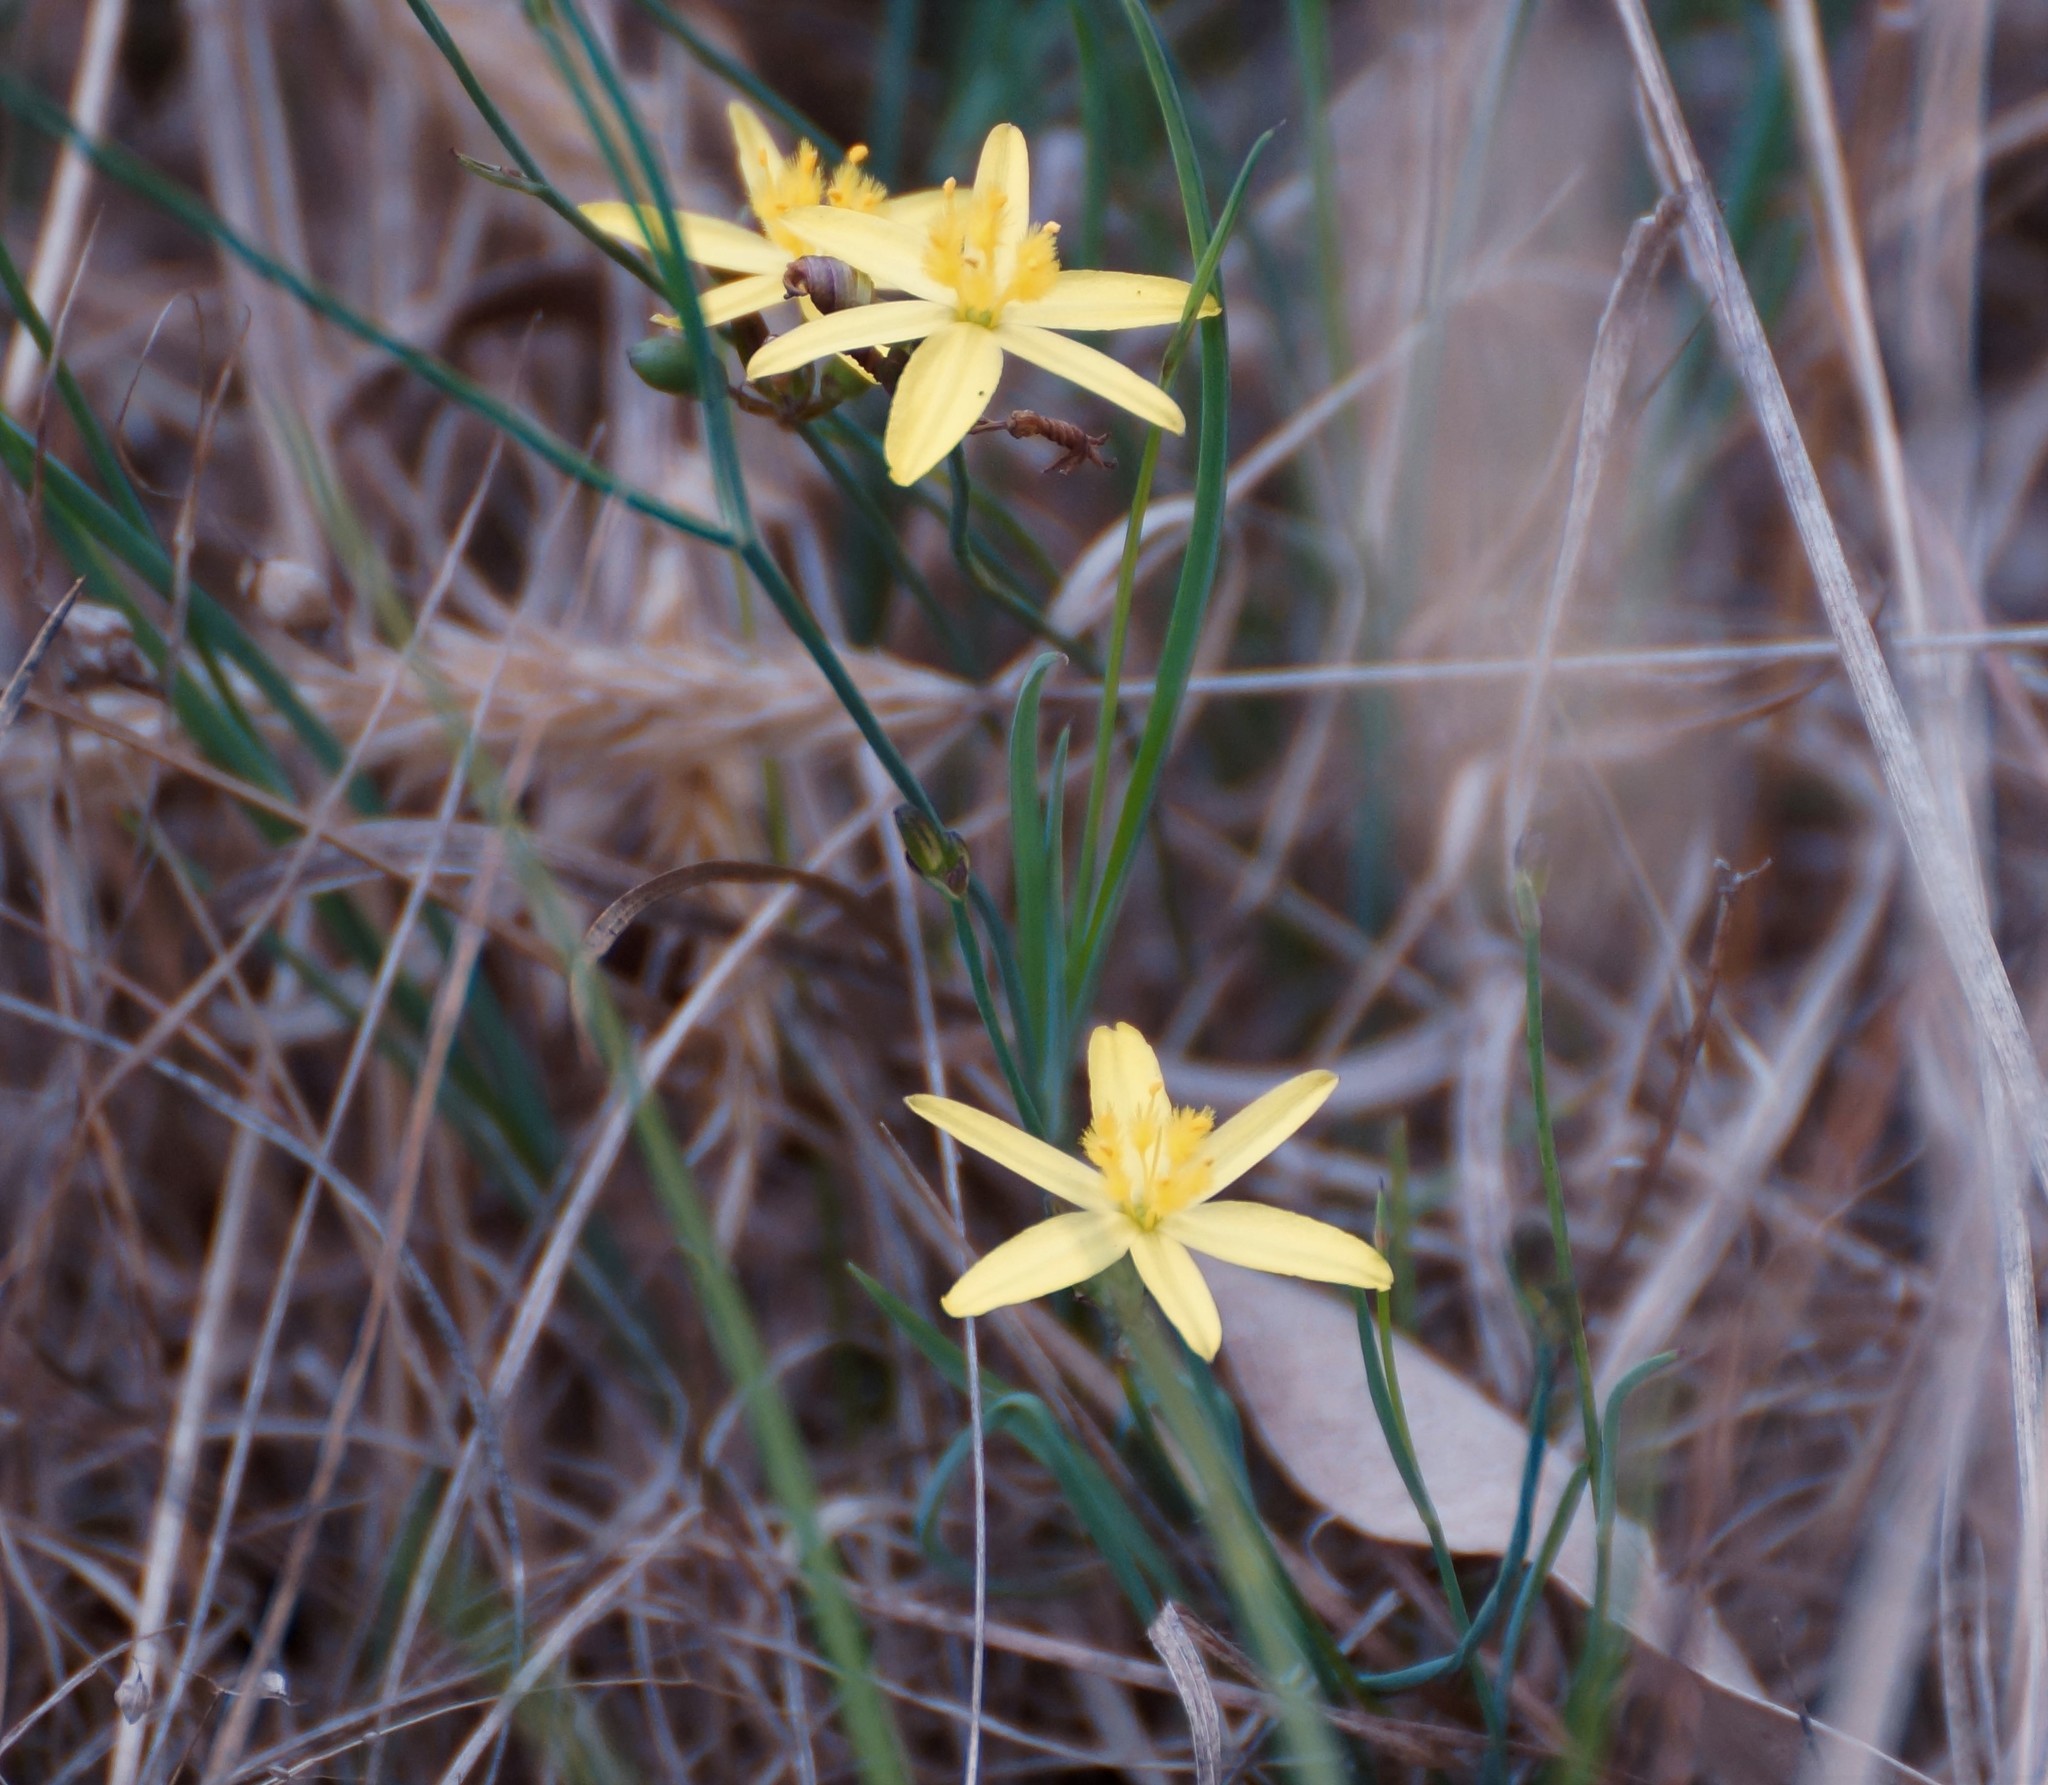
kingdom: Plantae
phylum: Tracheophyta
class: Liliopsida
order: Asparagales
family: Asphodelaceae
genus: Tricoryne
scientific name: Tricoryne elatior
